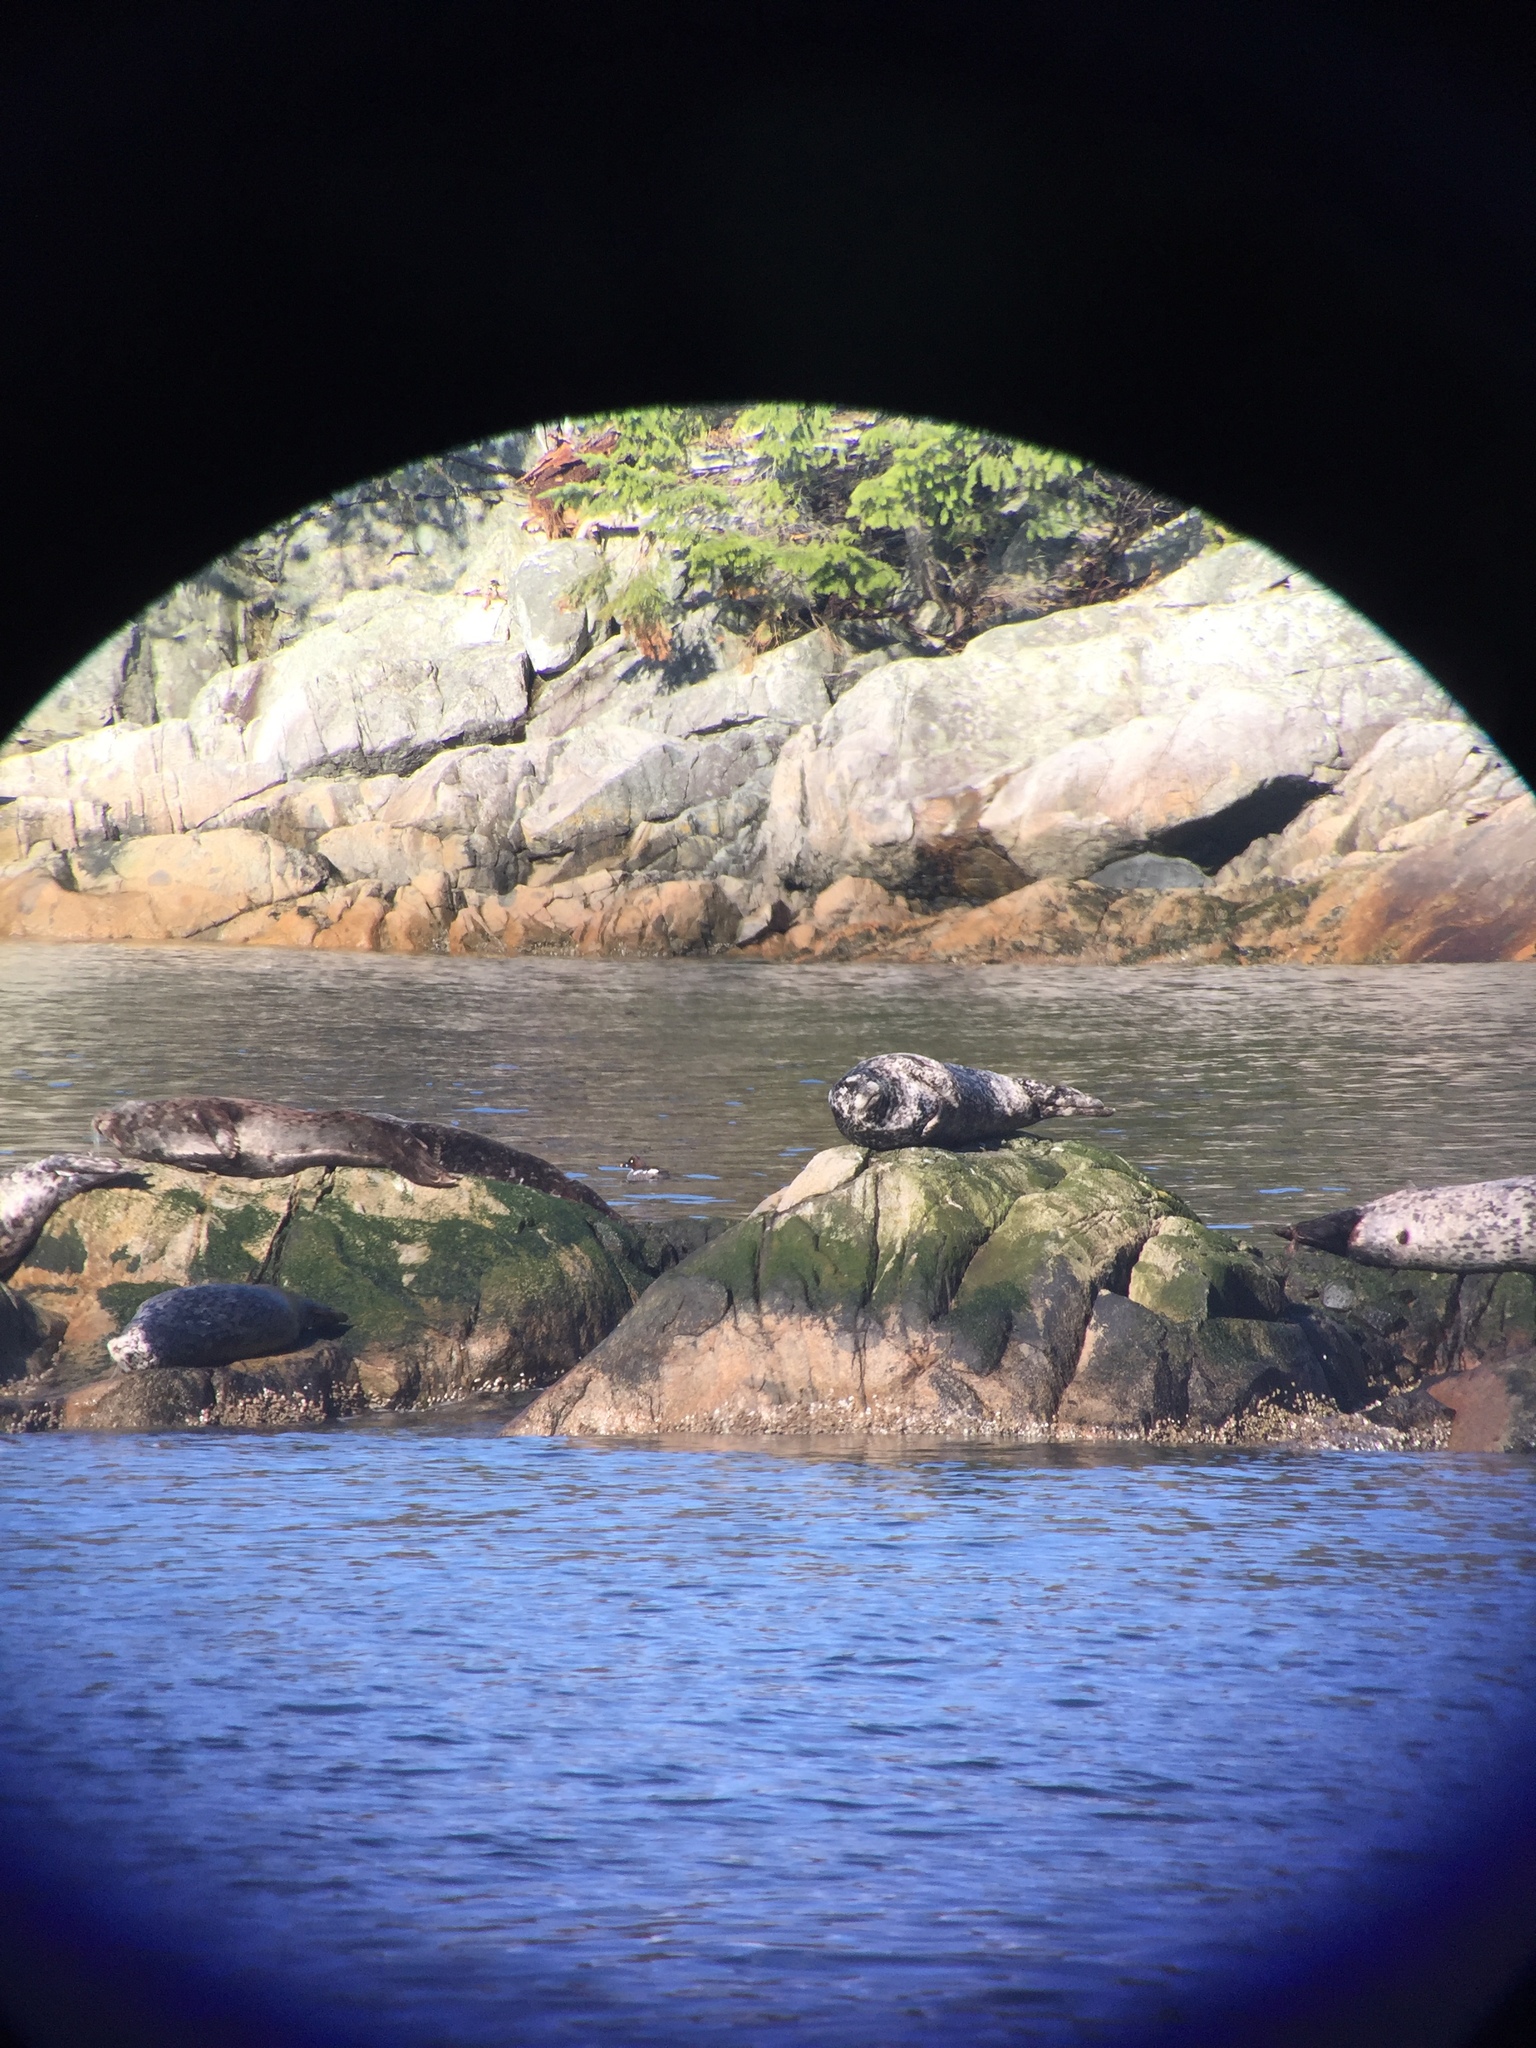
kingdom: Animalia
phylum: Chordata
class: Mammalia
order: Carnivora
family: Phocidae
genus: Phoca
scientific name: Phoca vitulina
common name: Harbor seal
